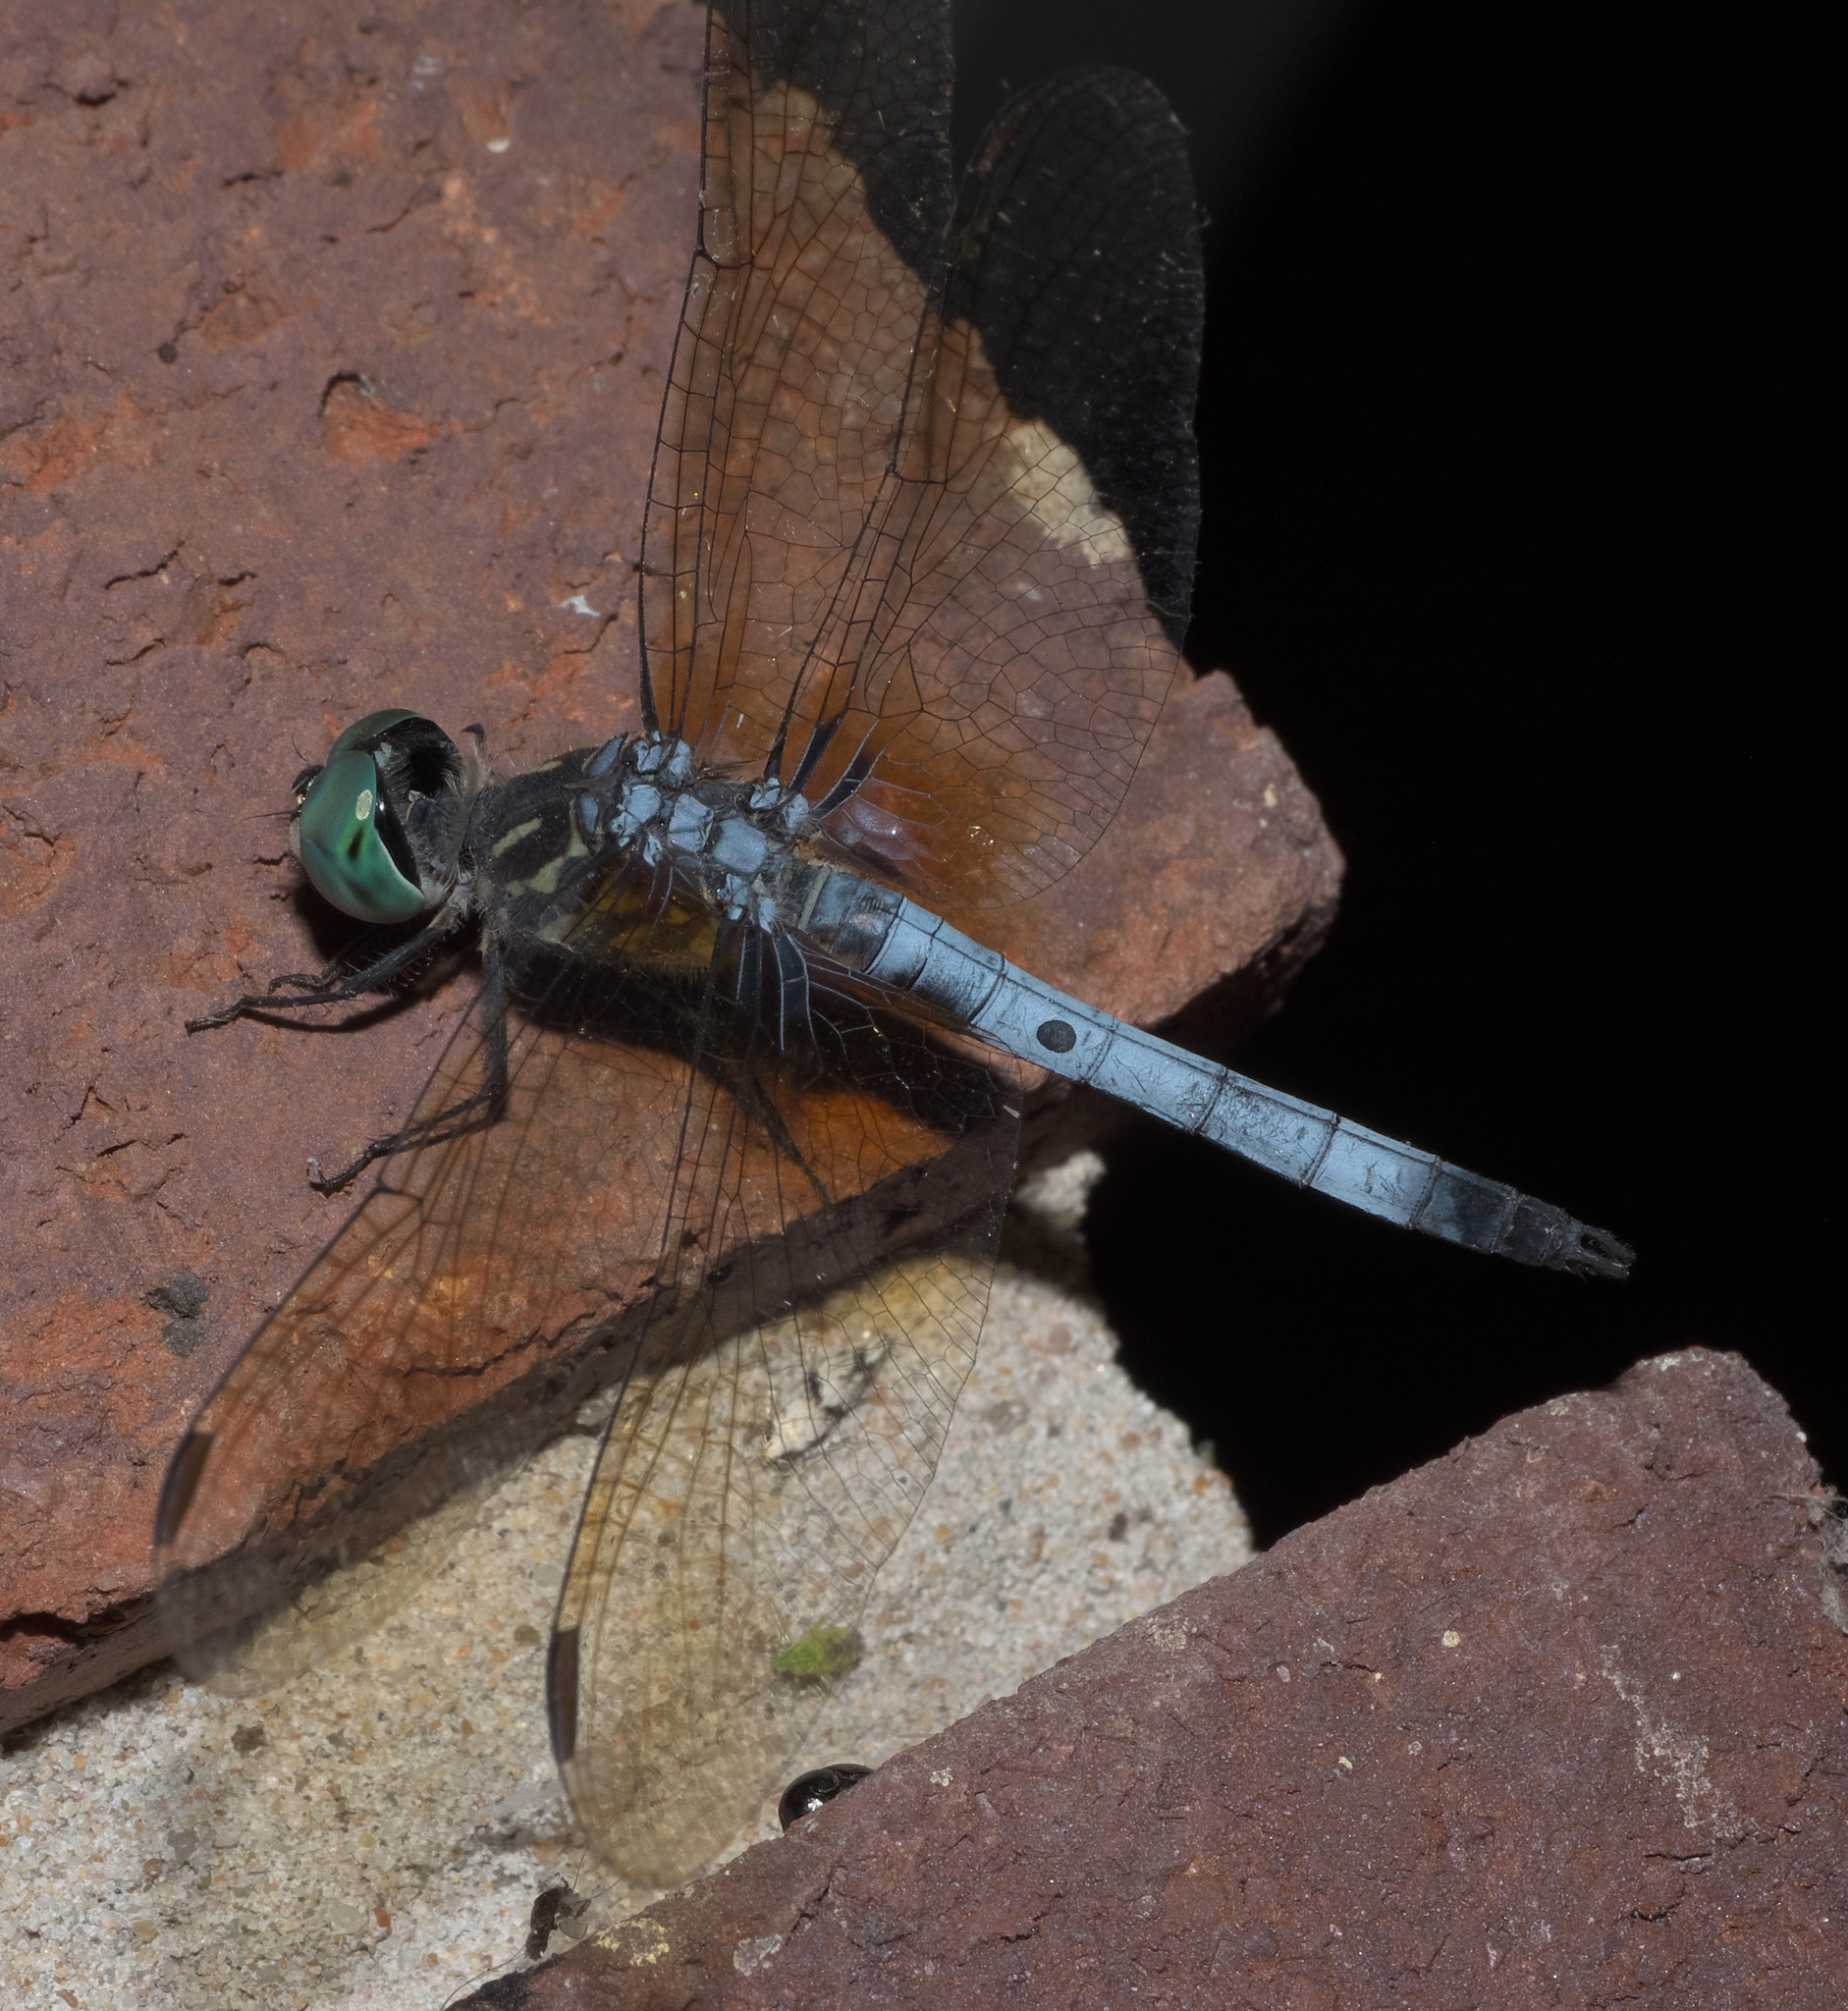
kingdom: Animalia
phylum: Arthropoda
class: Insecta
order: Odonata
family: Libellulidae
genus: Pachydiplax
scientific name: Pachydiplax longipennis
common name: Blue dasher
